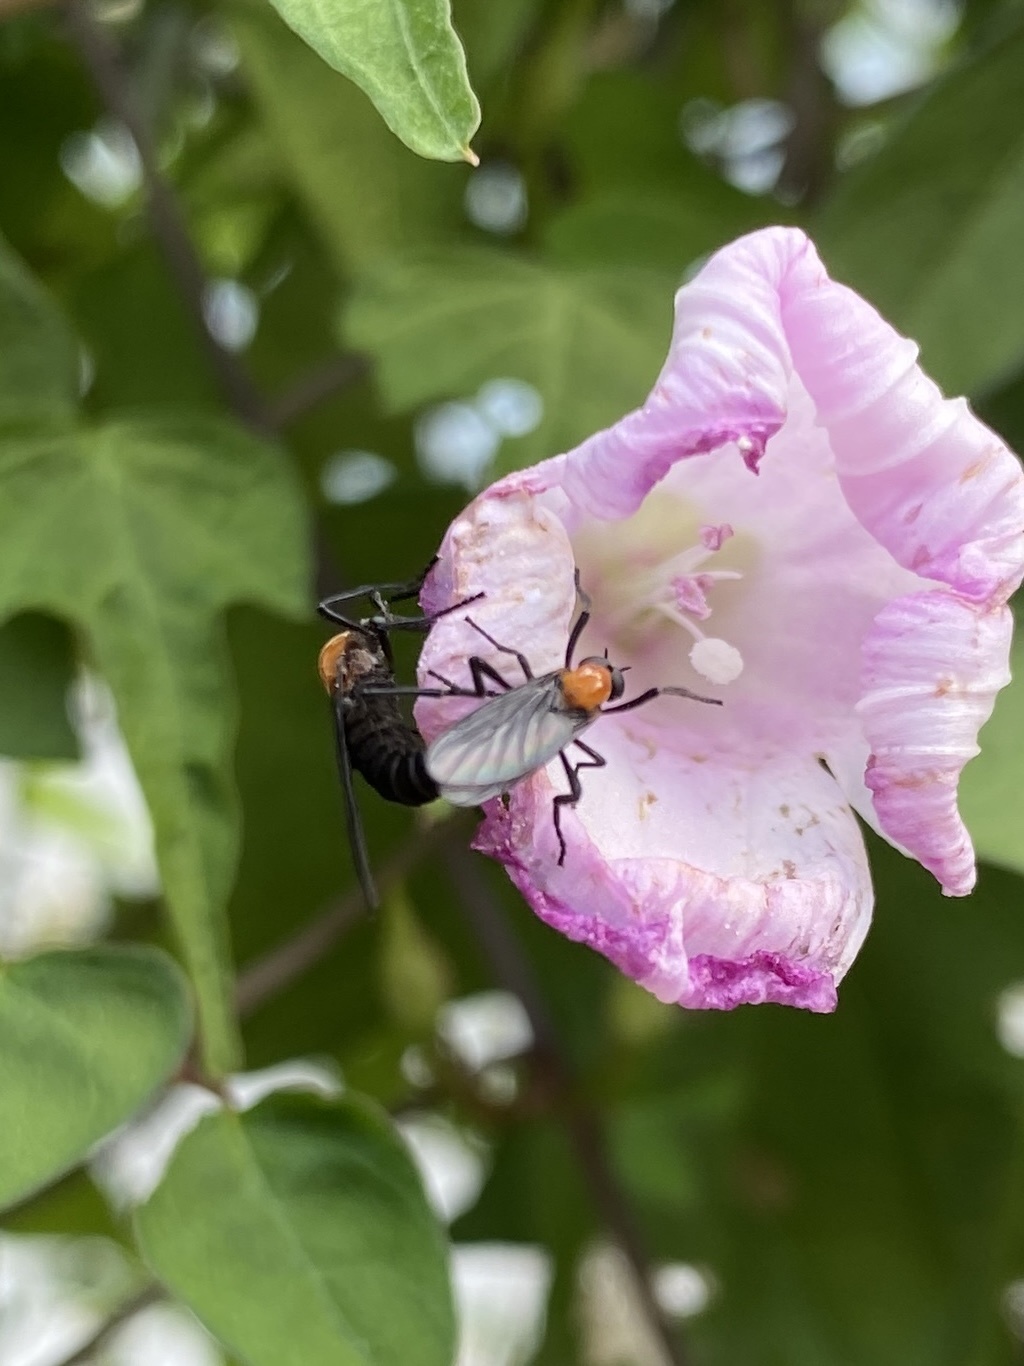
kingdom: Animalia
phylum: Arthropoda
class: Insecta
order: Diptera
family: Bibionidae
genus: Plecia
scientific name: Plecia nearctica
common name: March fly
